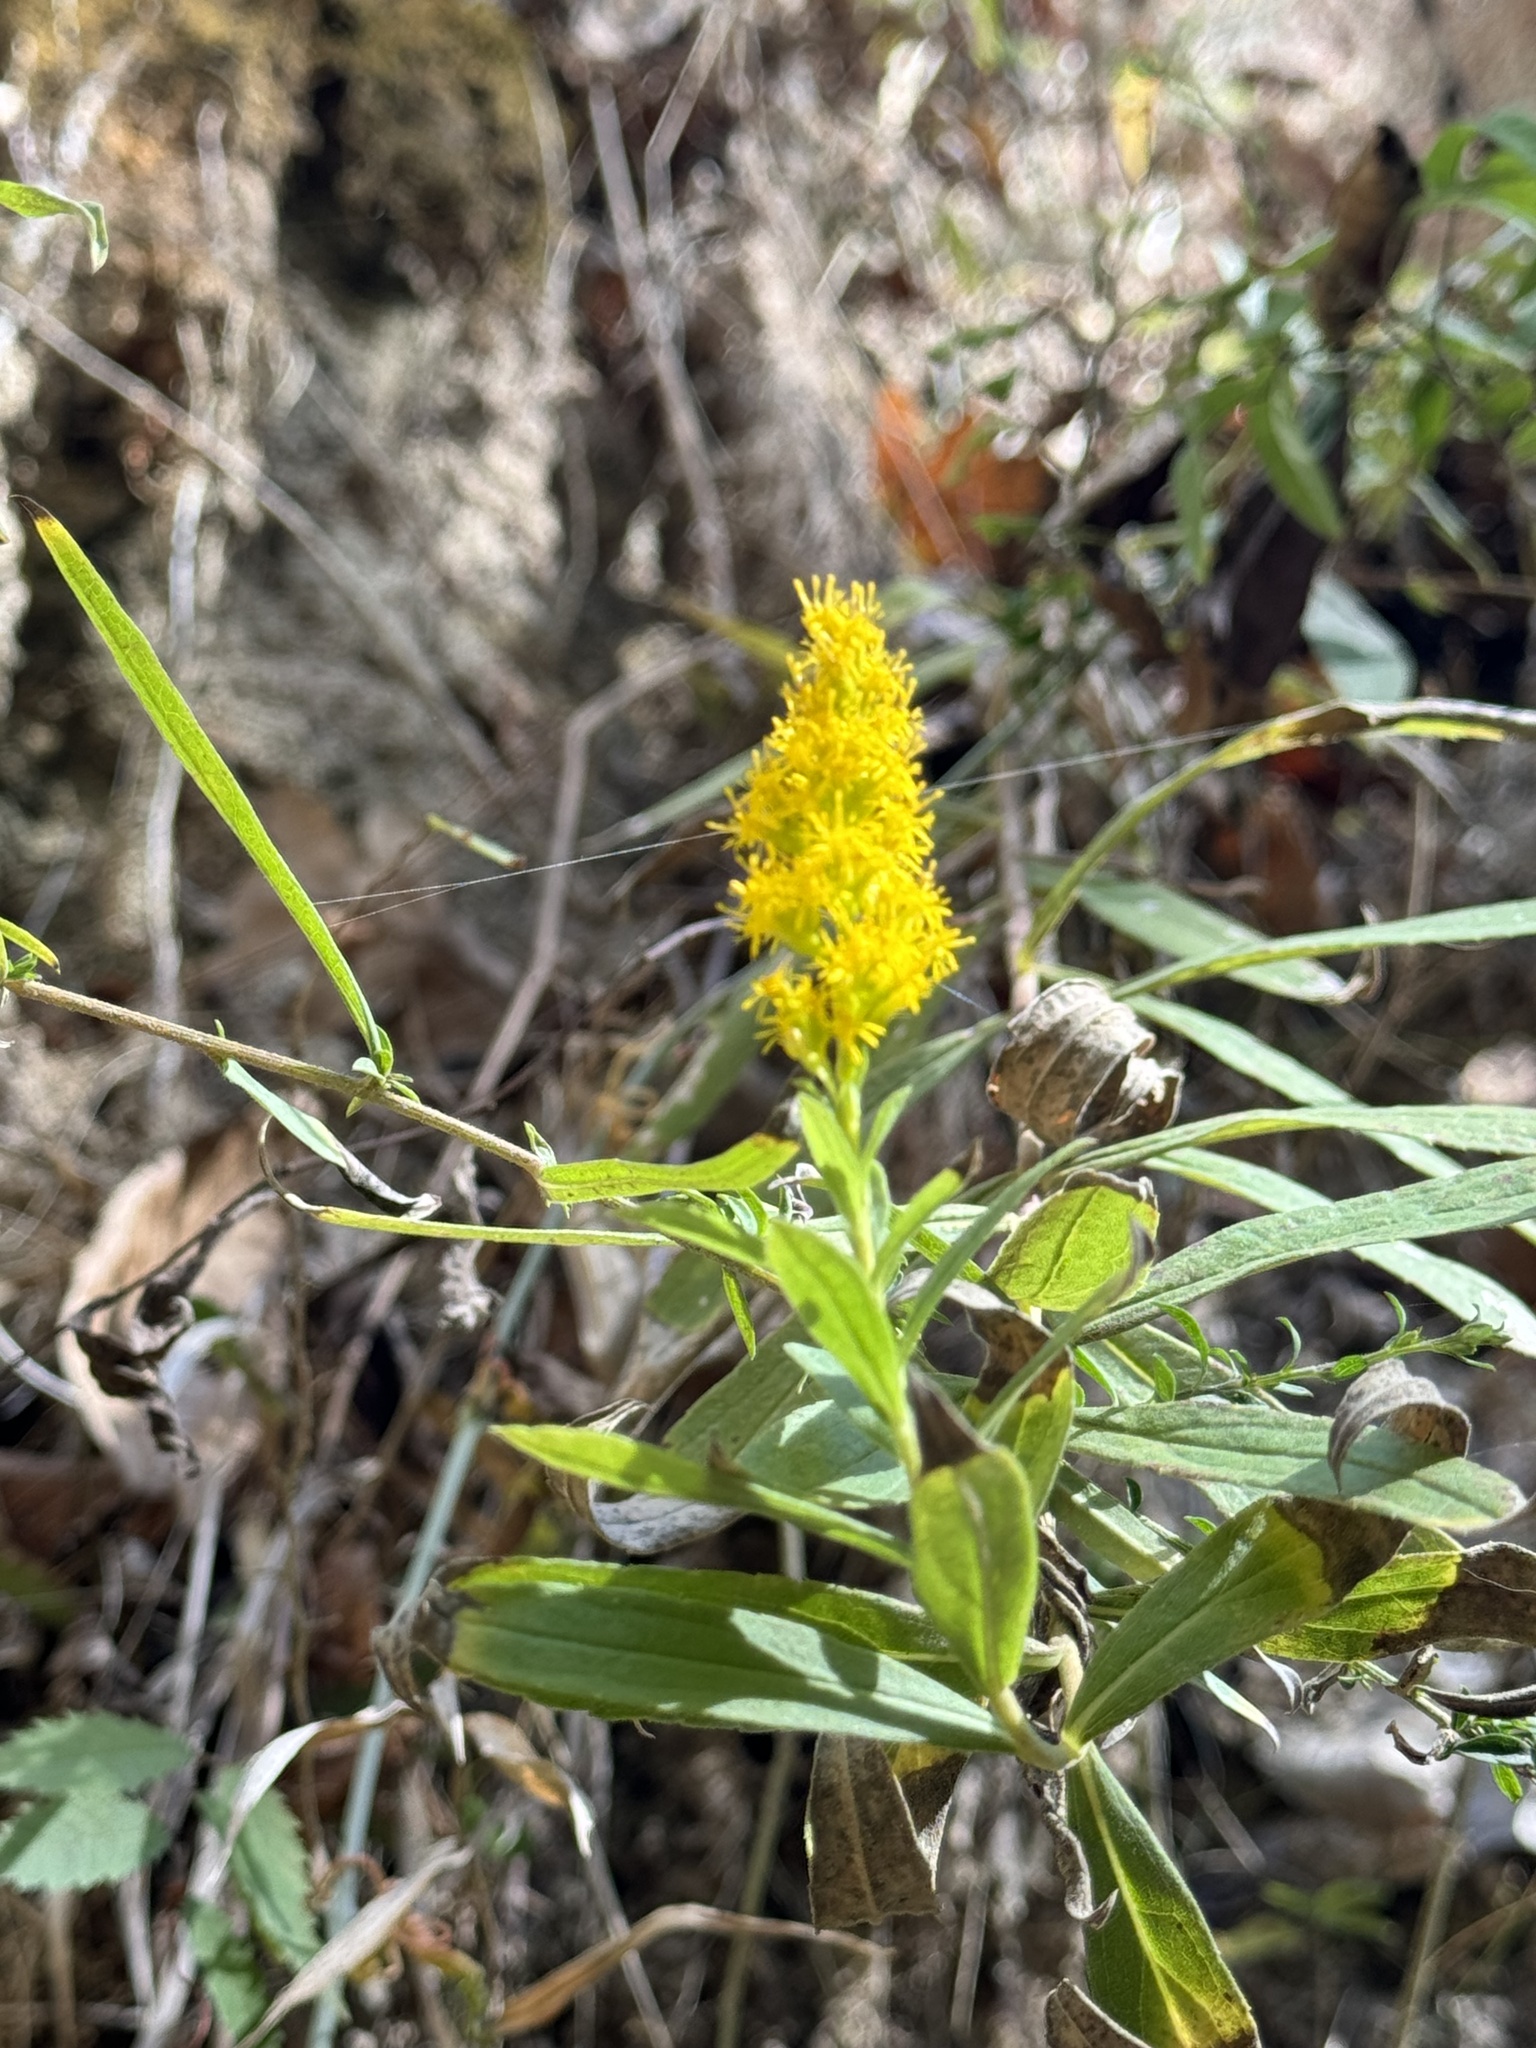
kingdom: Plantae
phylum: Tracheophyta
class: Magnoliopsida
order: Asterales
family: Asteraceae
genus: Solidago
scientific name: Solidago altissima
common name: Late goldenrod
